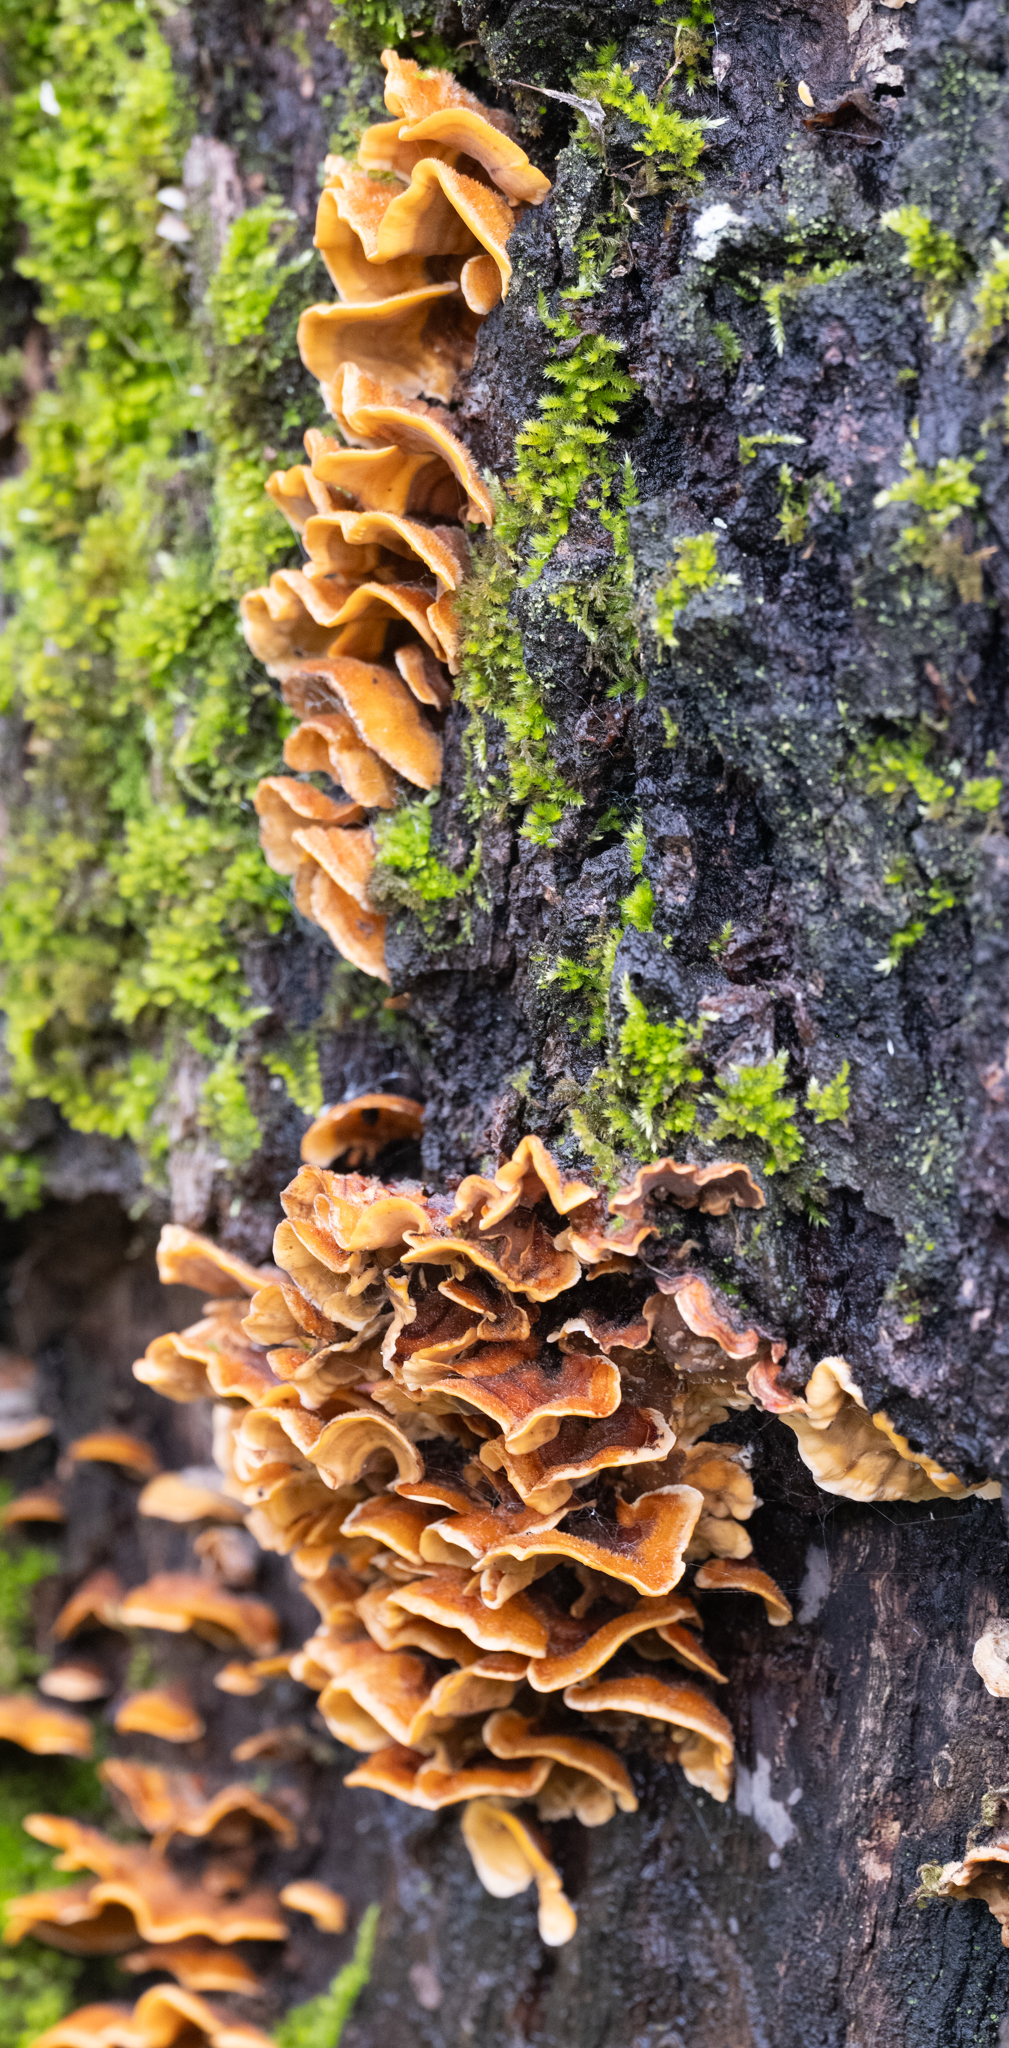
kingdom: Fungi
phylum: Basidiomycota
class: Agaricomycetes
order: Russulales
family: Stereaceae
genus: Stereum
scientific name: Stereum hirsutum
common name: Hairy curtain crust
